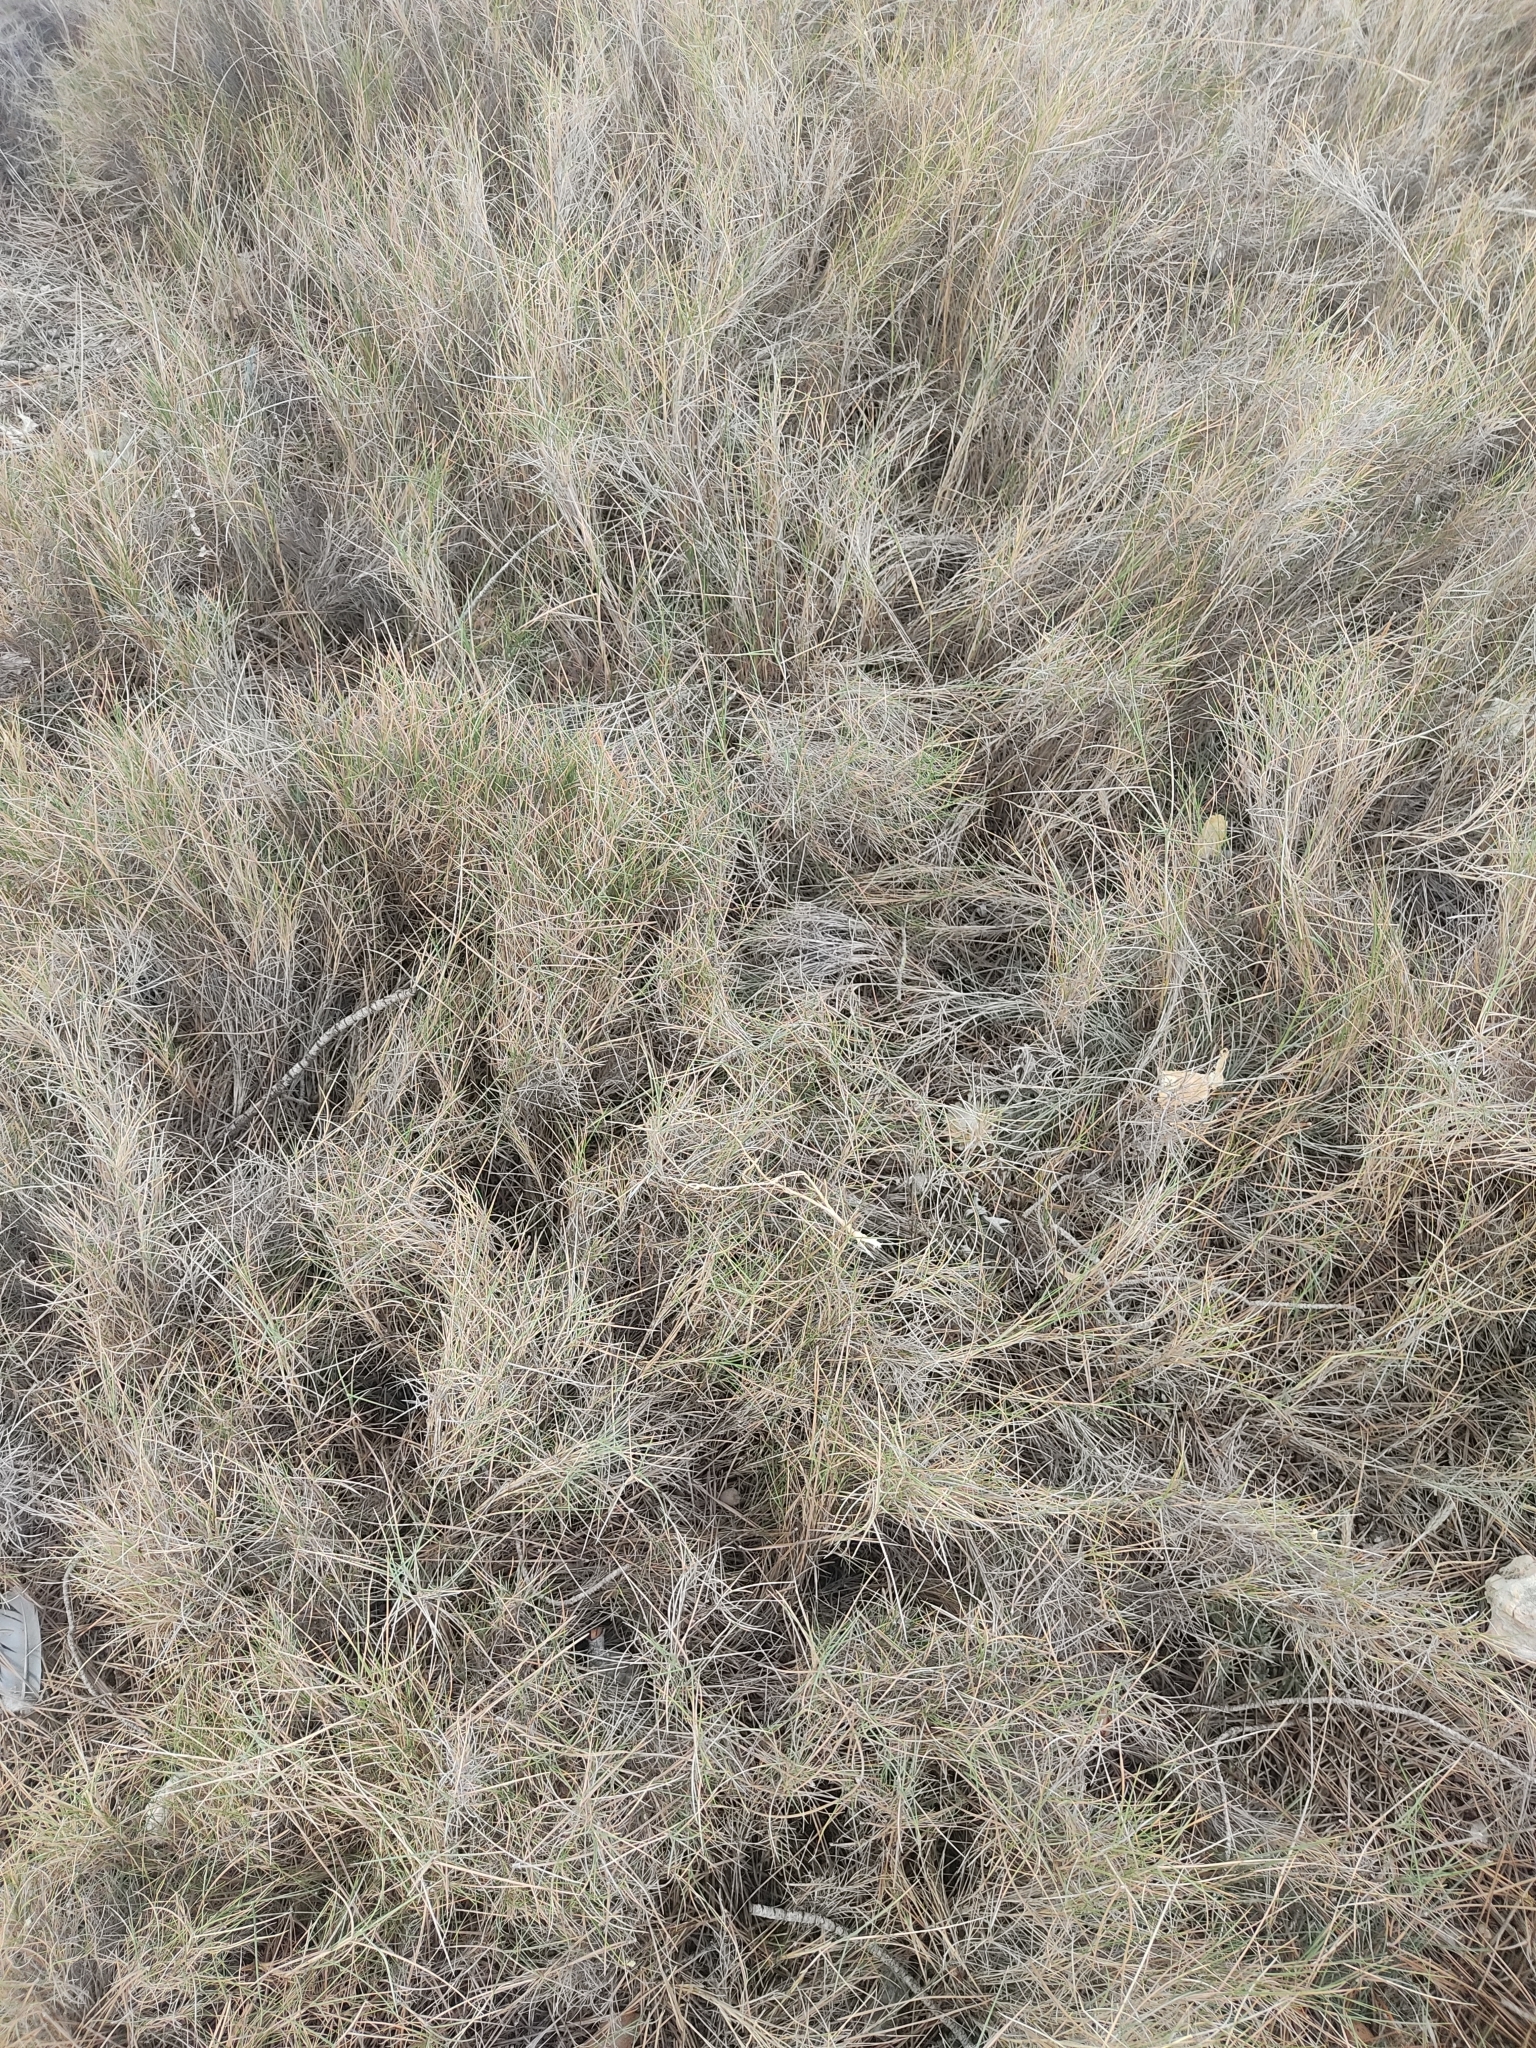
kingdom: Plantae
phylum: Tracheophyta
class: Liliopsida
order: Poales
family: Poaceae
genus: Brachypodium
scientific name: Brachypodium retusum
